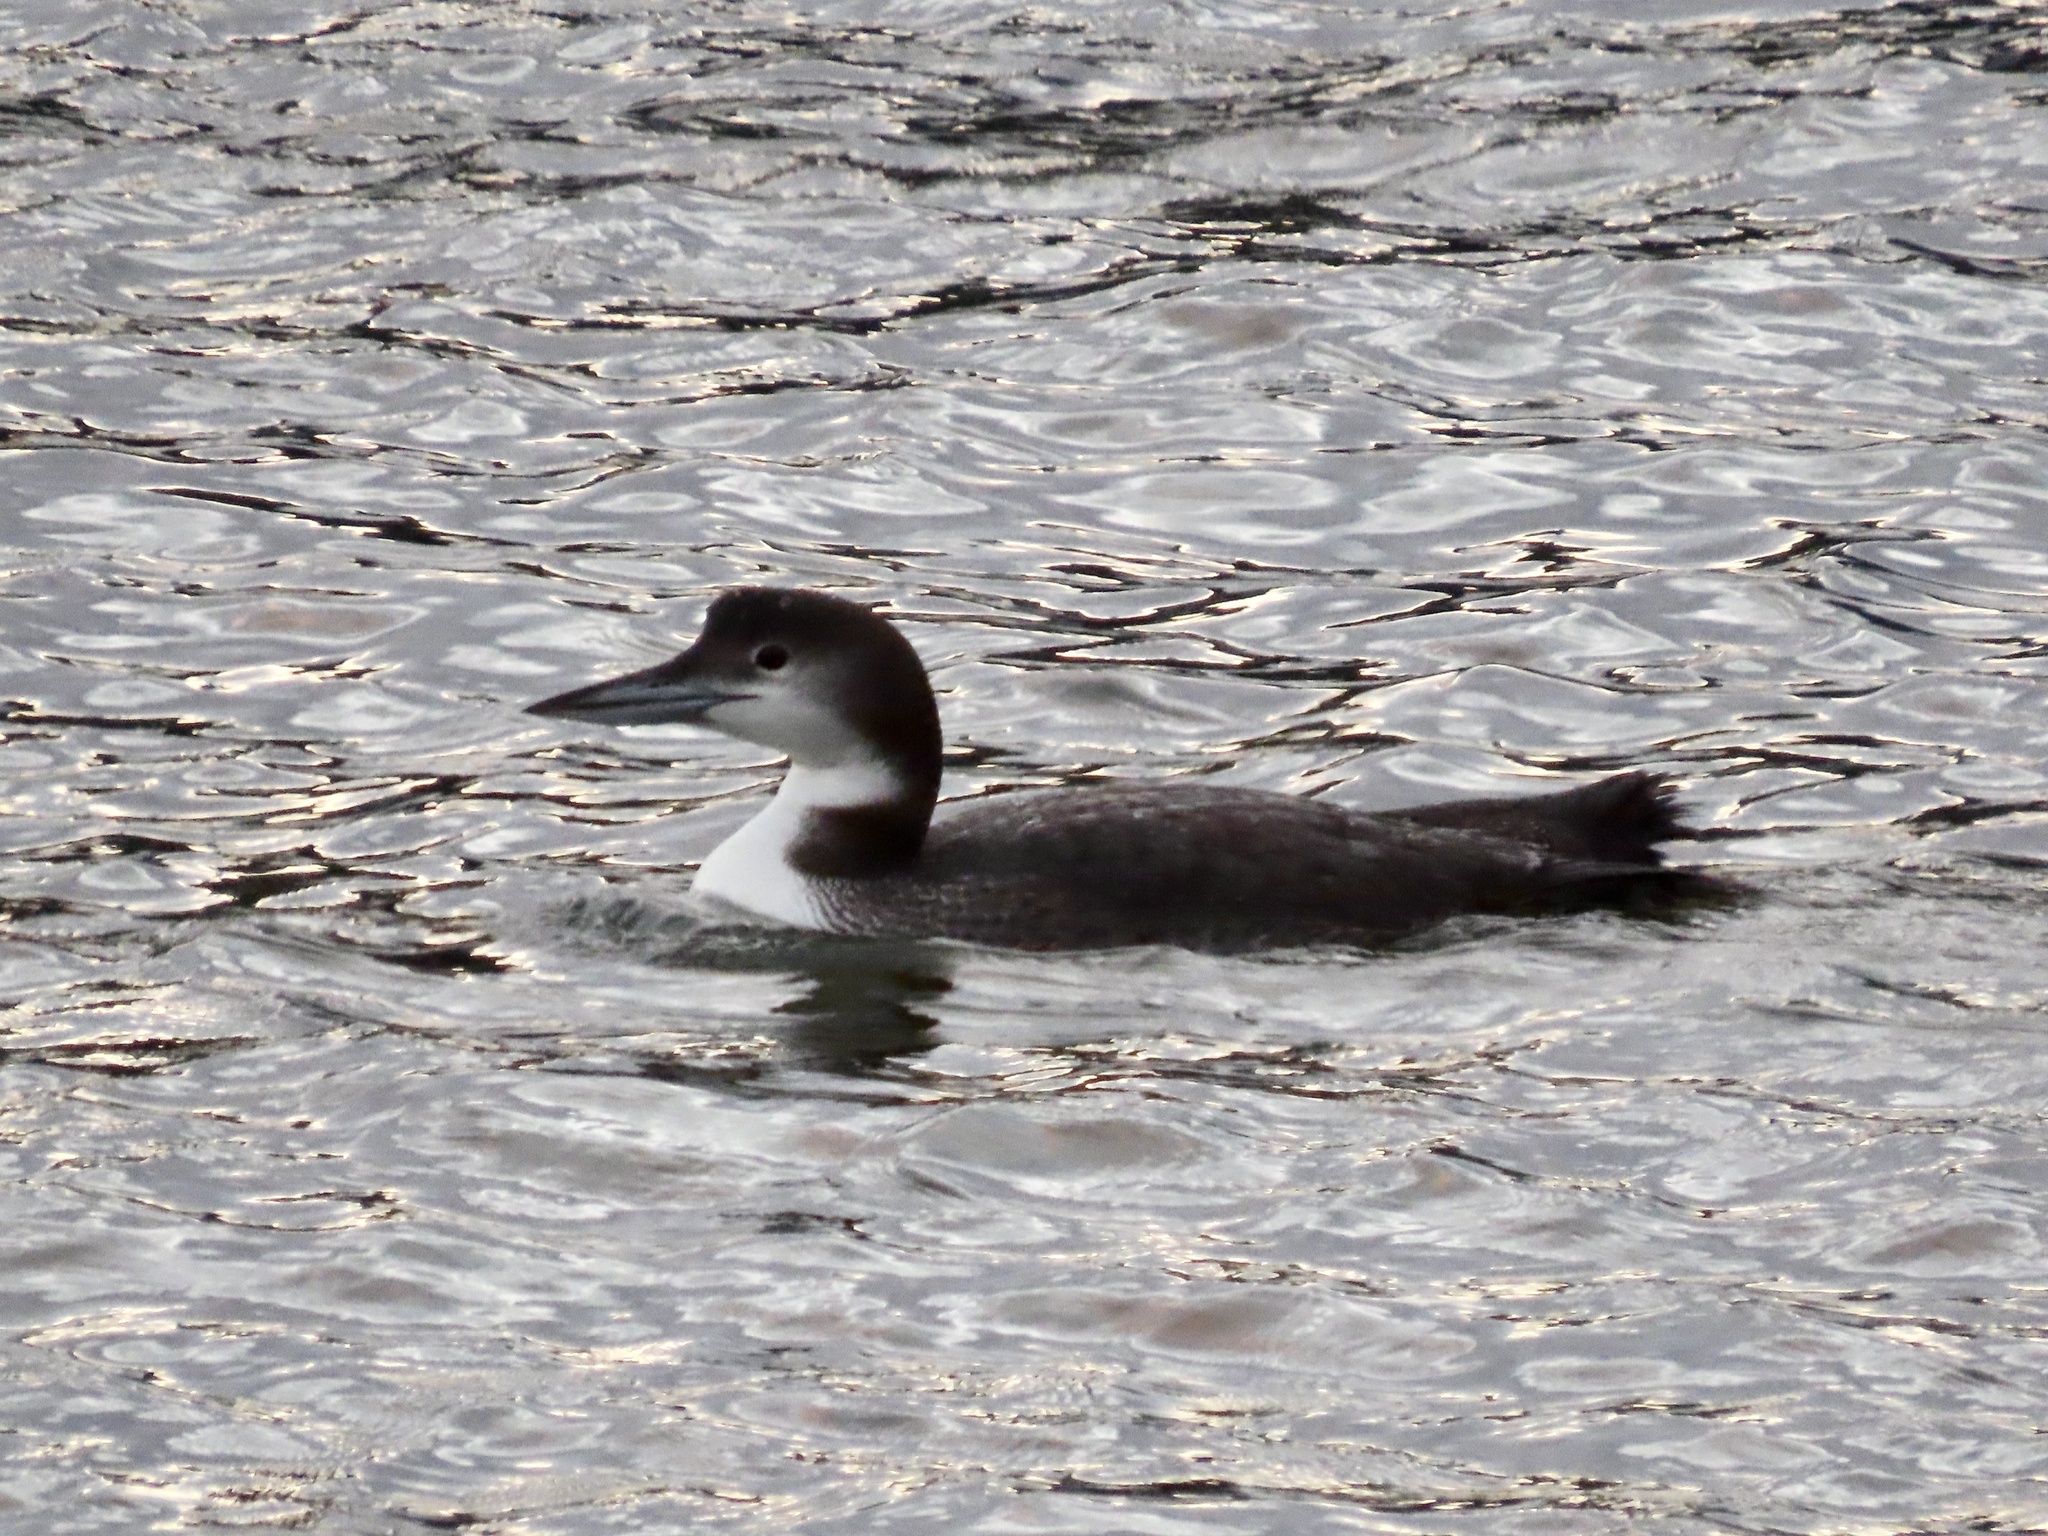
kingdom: Animalia
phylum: Chordata
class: Aves
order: Gaviiformes
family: Gaviidae
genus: Gavia
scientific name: Gavia immer
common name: Common loon
